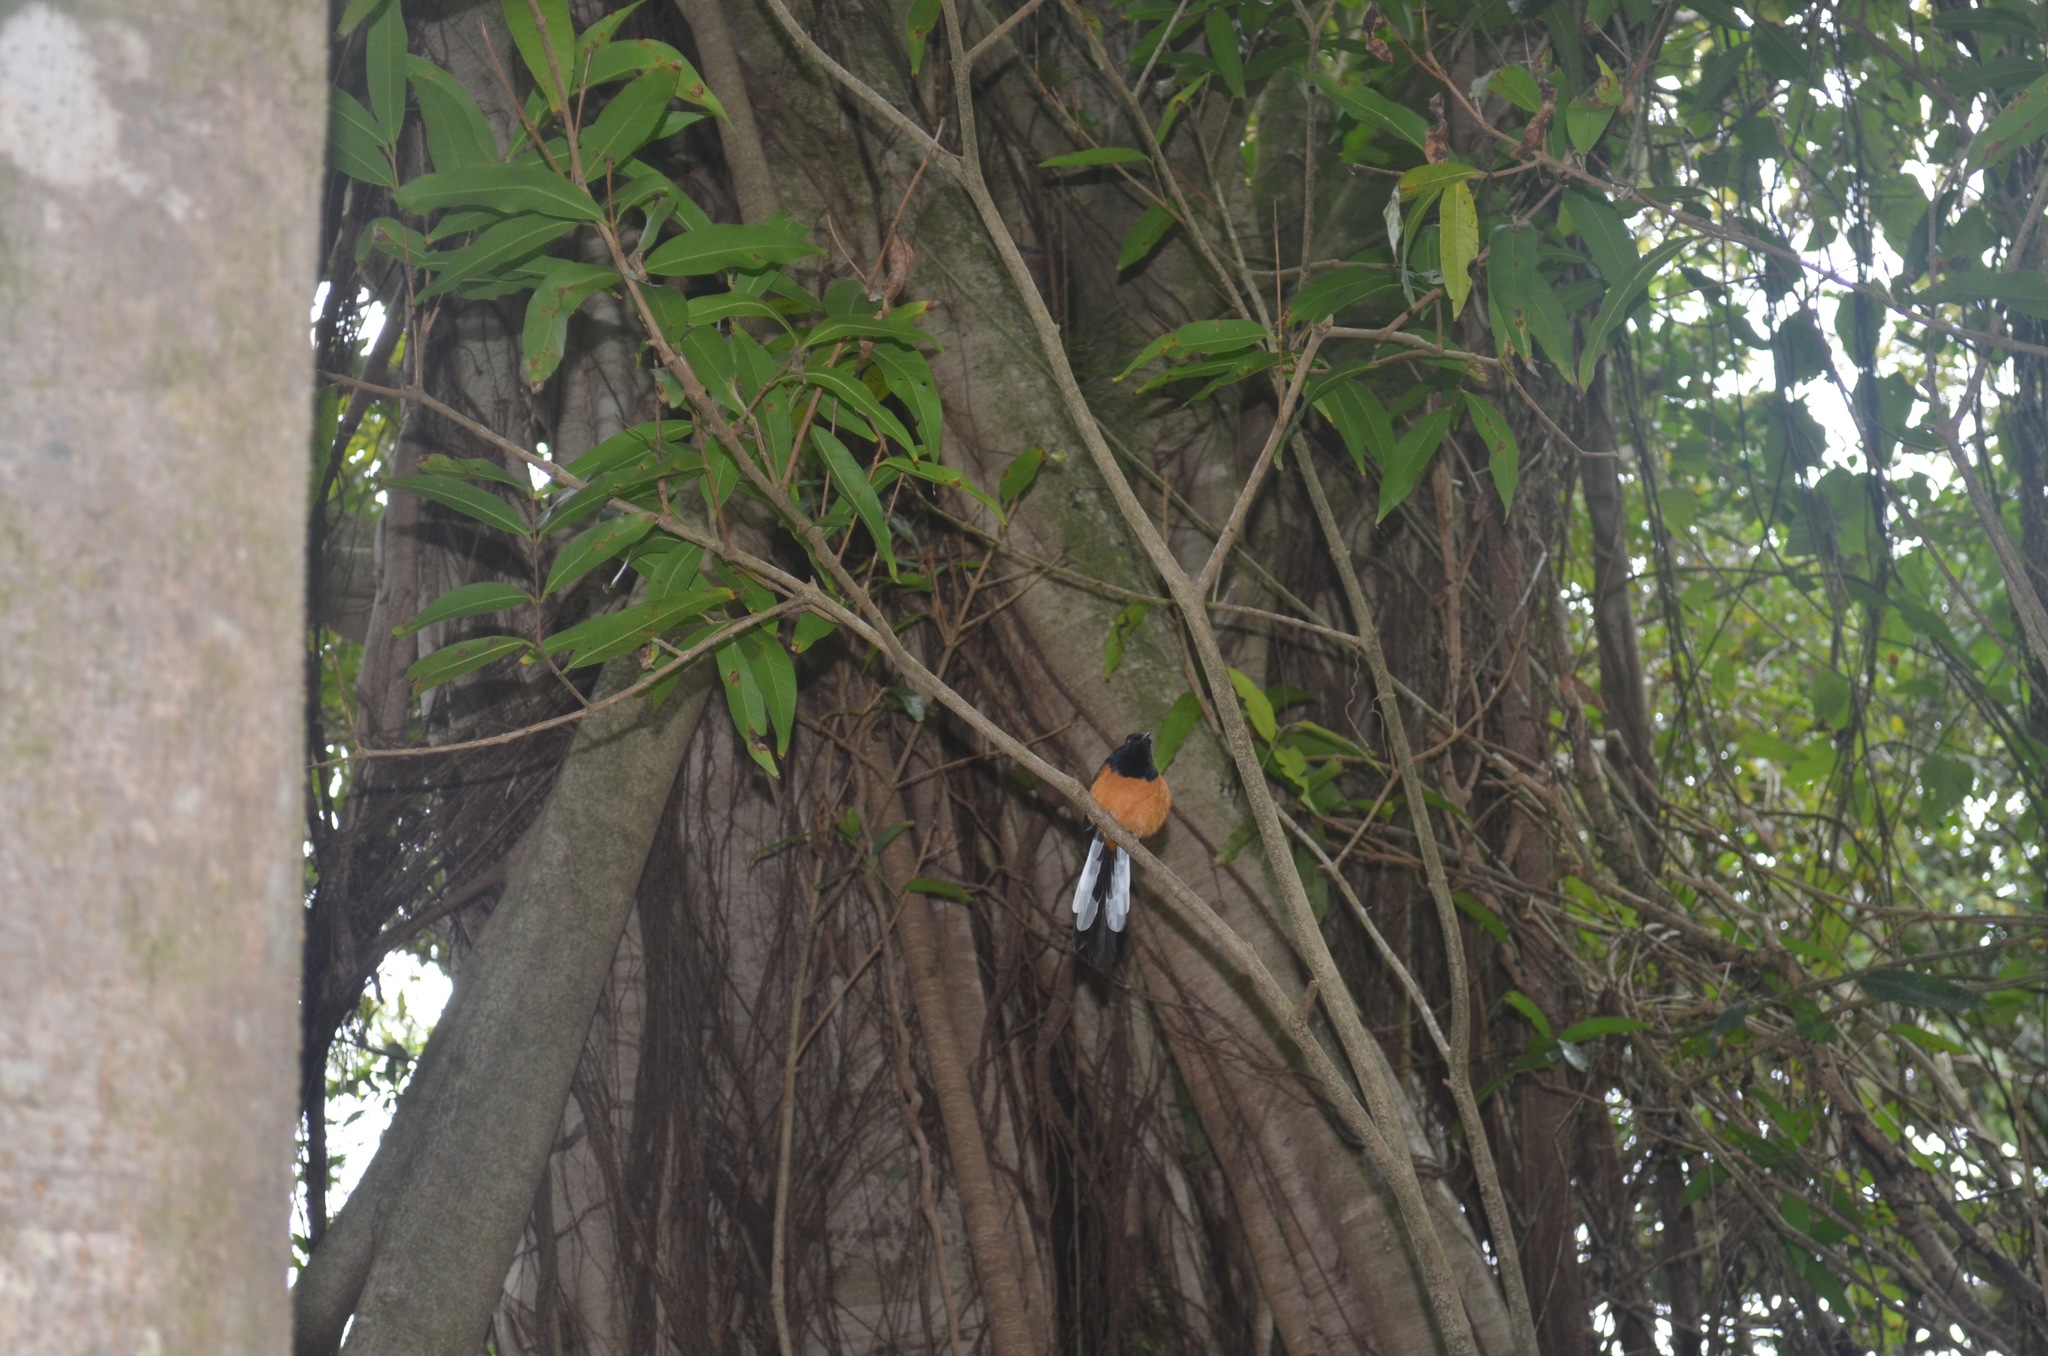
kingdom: Animalia
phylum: Chordata
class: Aves
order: Passeriformes
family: Muscicapidae
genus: Copsychus
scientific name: Copsychus malabaricus
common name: White-rumped shama
